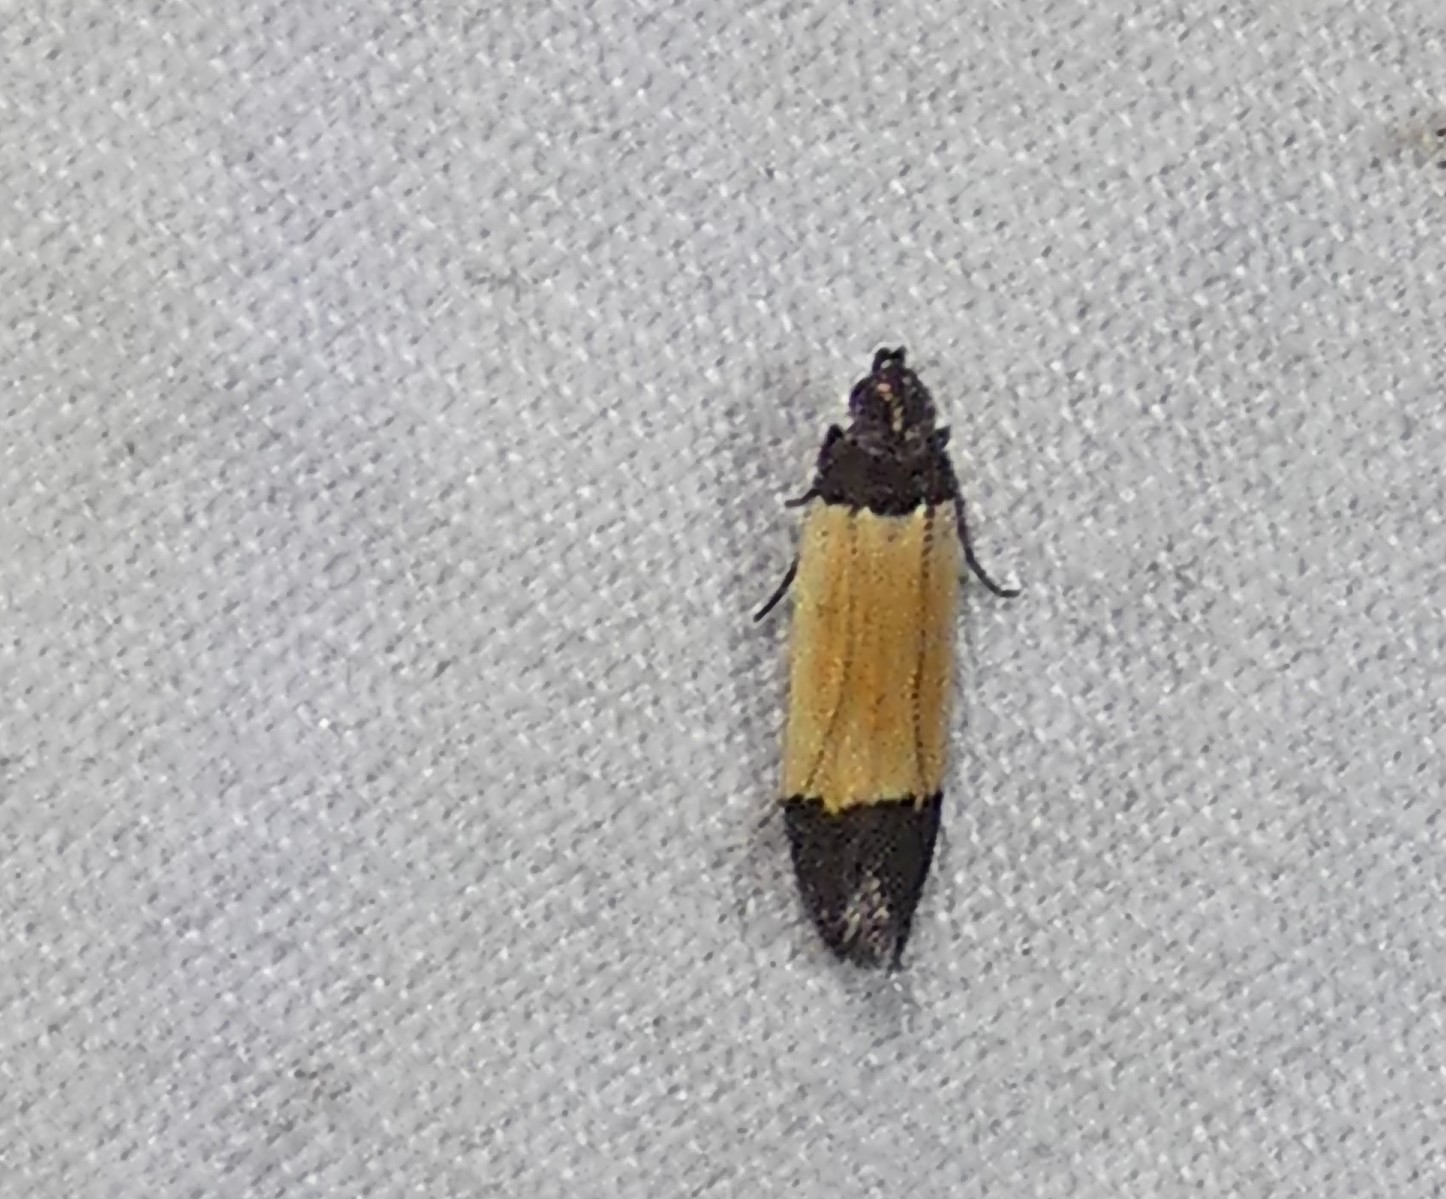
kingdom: Animalia
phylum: Arthropoda
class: Insecta
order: Lepidoptera
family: Gelechiidae
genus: Anacampsis
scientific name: Anacampsis coverdalella
